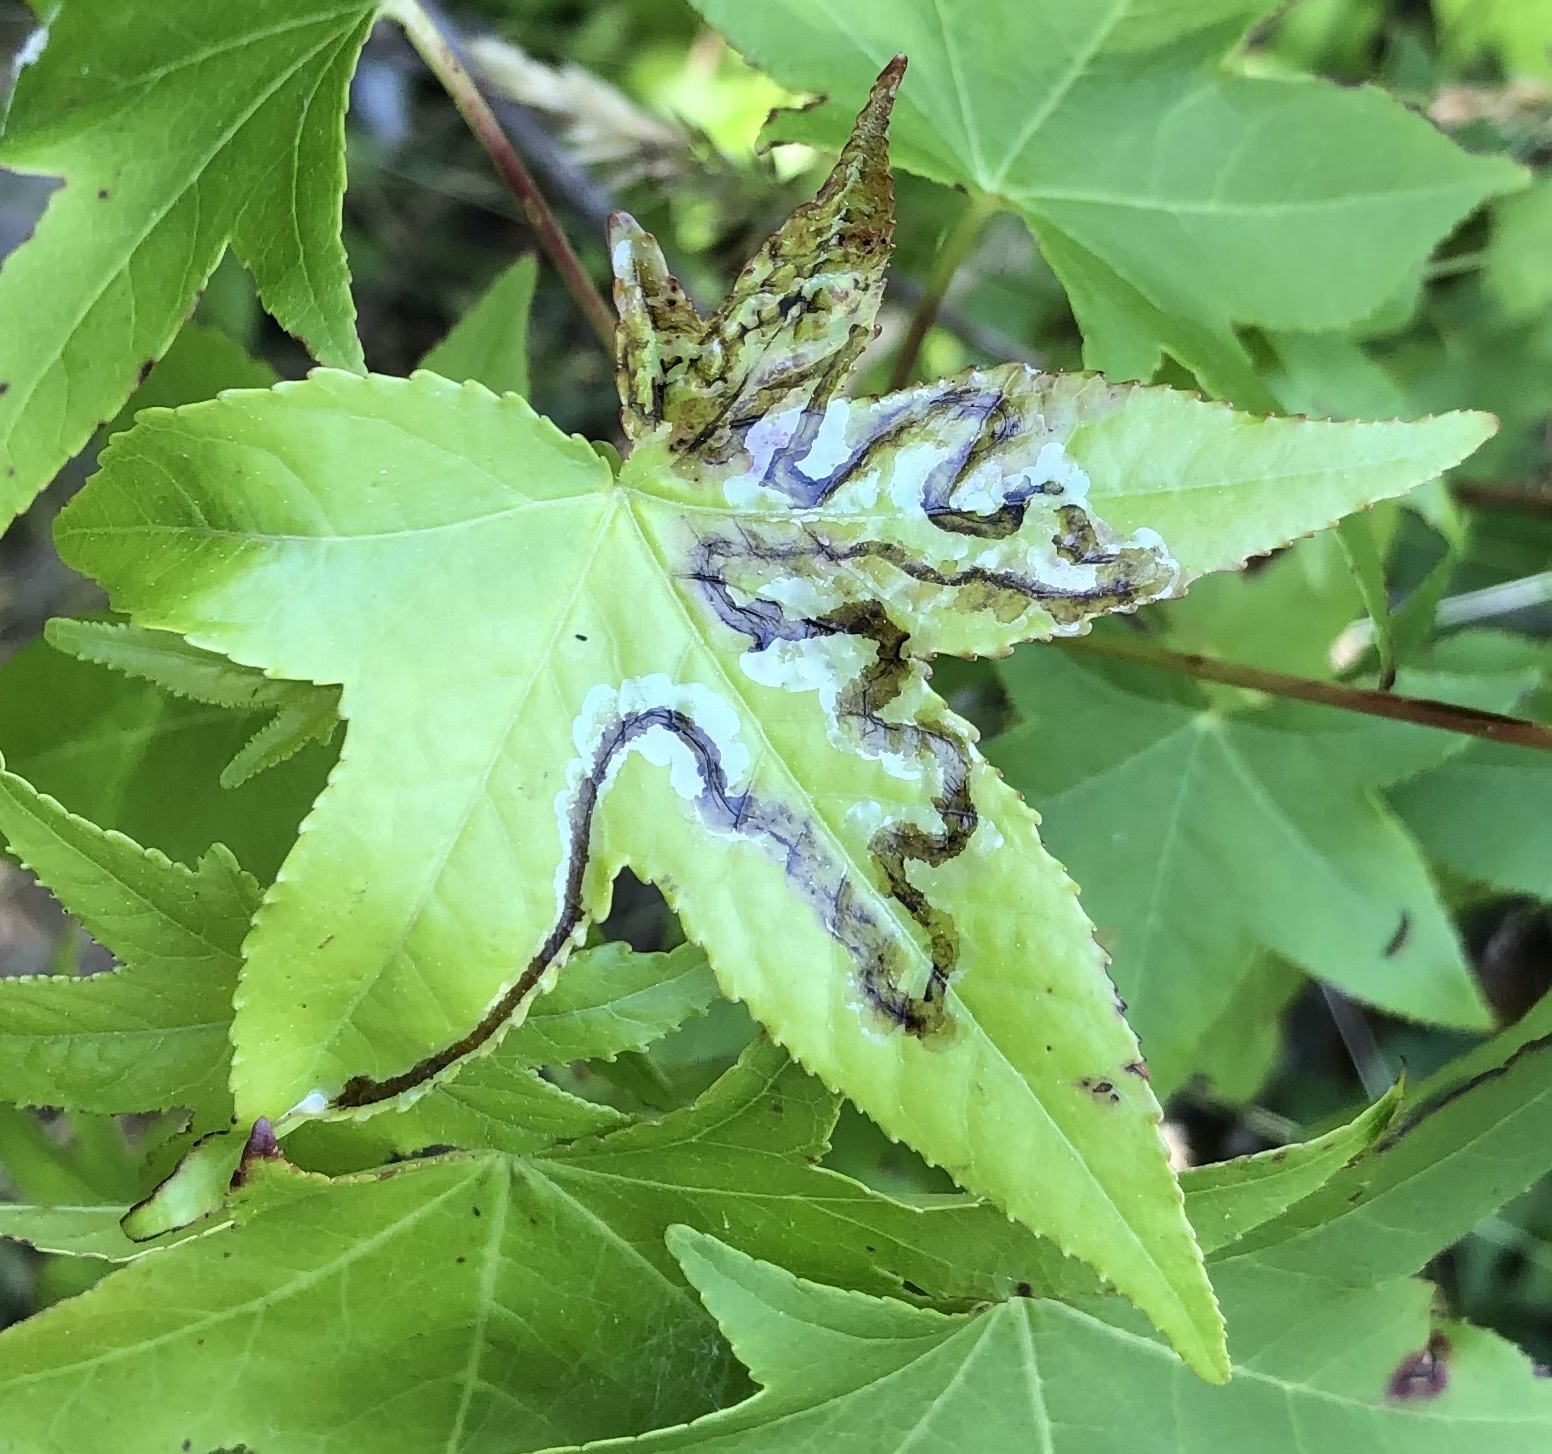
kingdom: Animalia
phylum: Arthropoda
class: Insecta
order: Lepidoptera
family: Gracillariidae
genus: Phyllocnistis
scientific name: Phyllocnistis liquidambarisella
